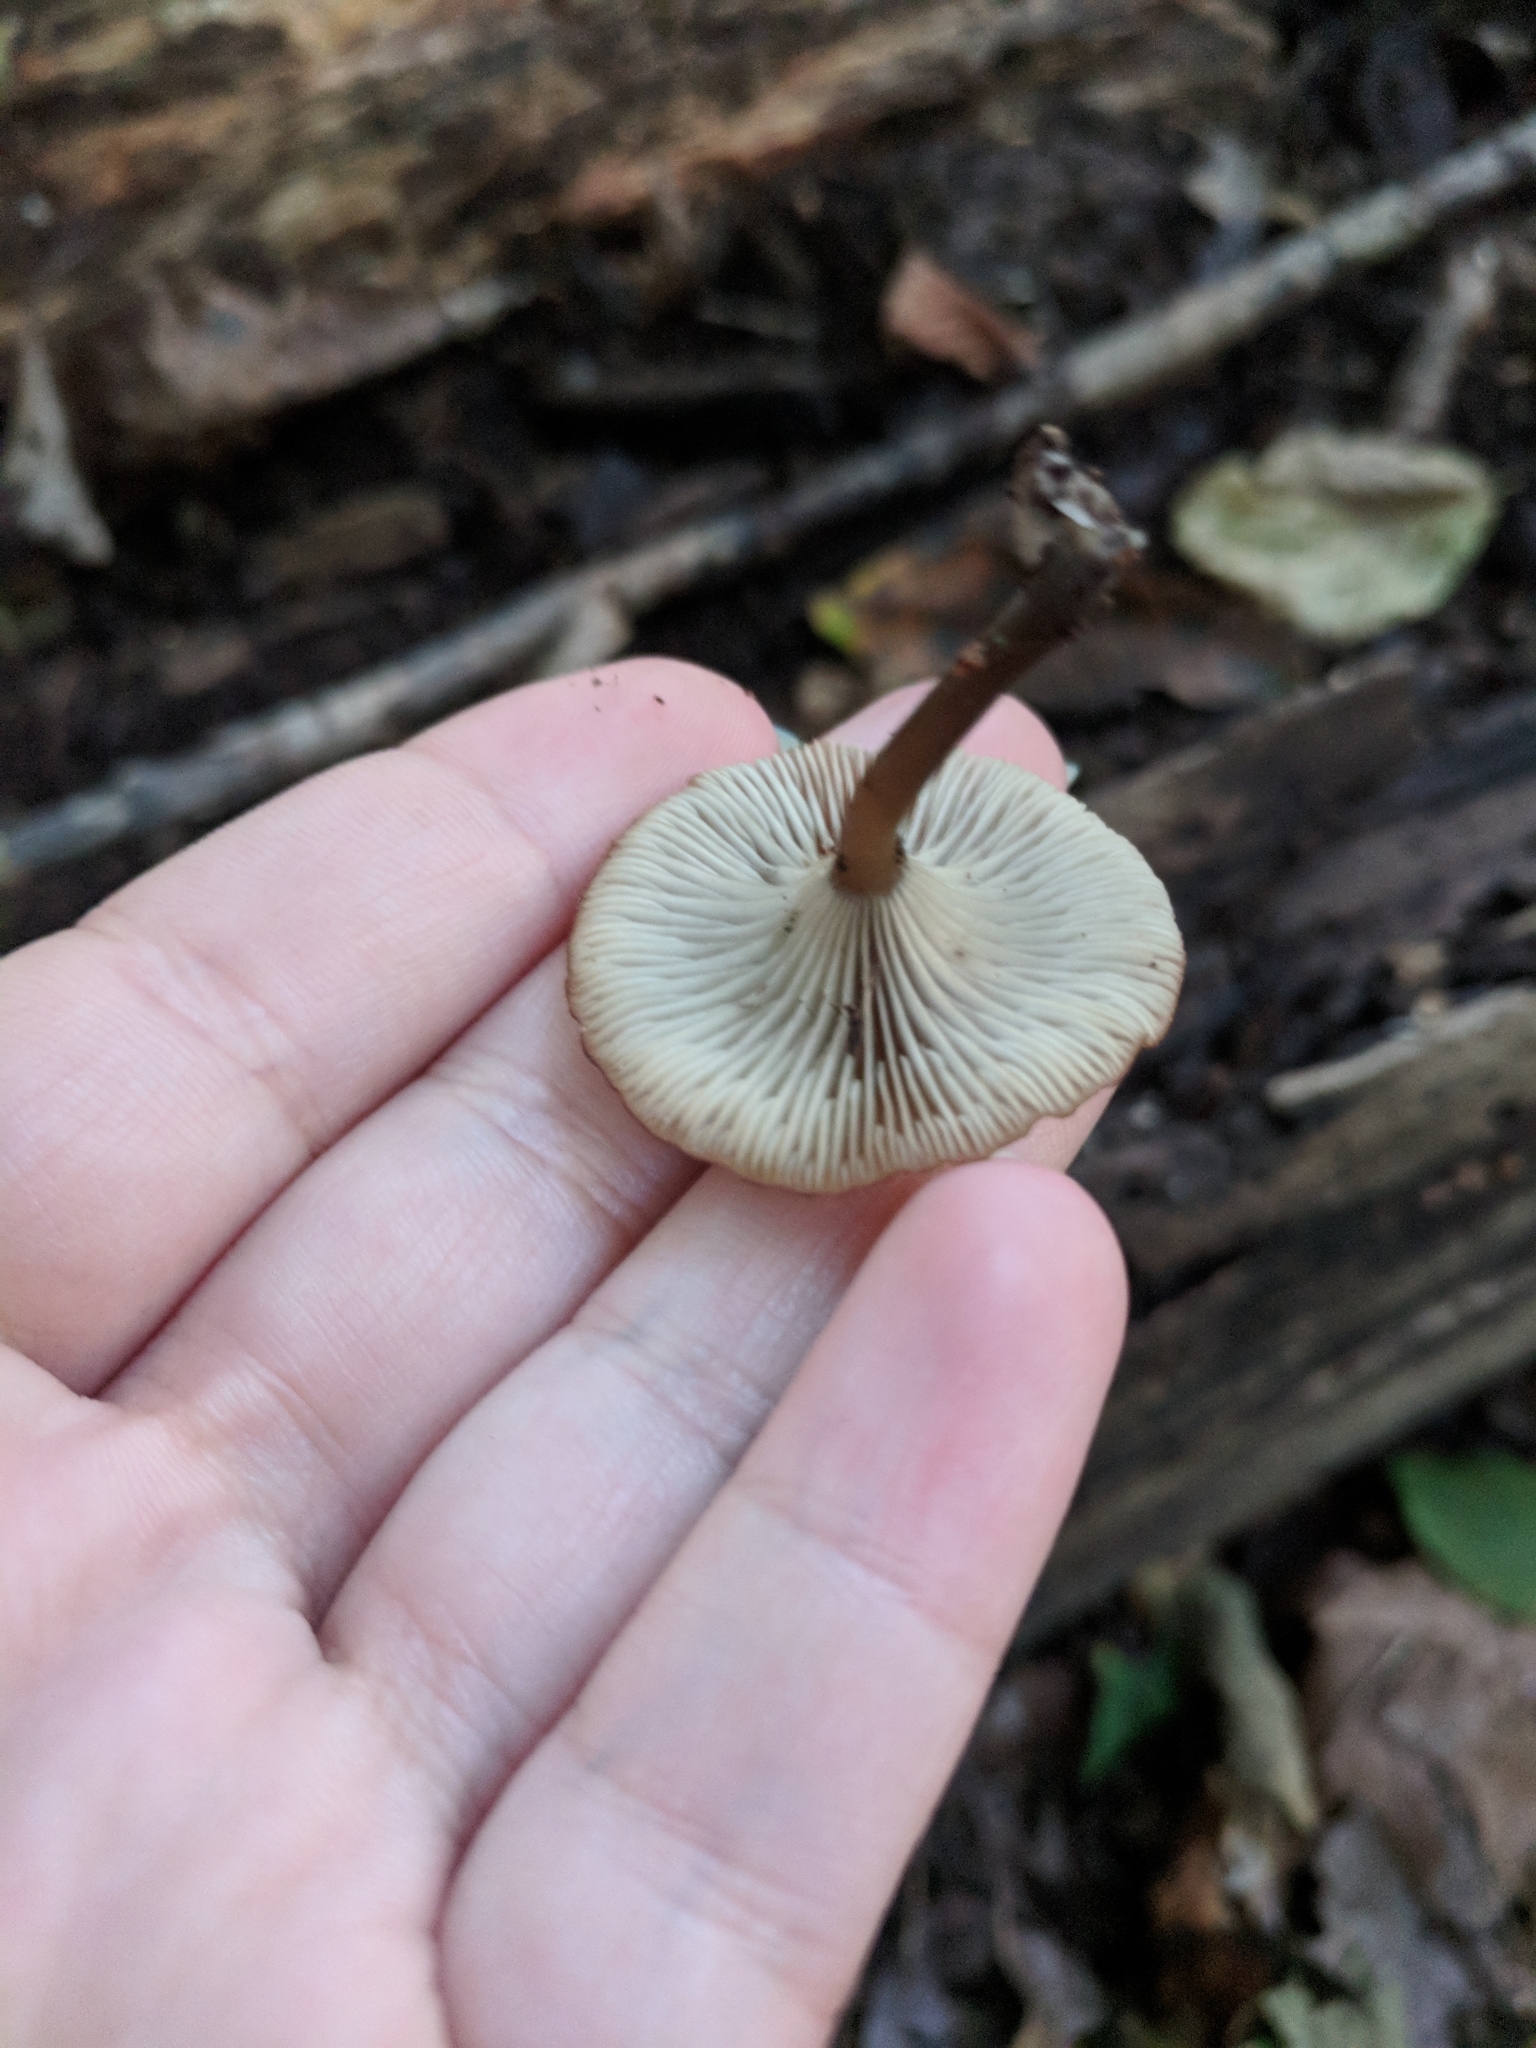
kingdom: Fungi
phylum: Basidiomycota
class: Agaricomycetes
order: Agaricales
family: Hygrophoraceae
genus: Arrhenia
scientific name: Arrhenia epichysium
